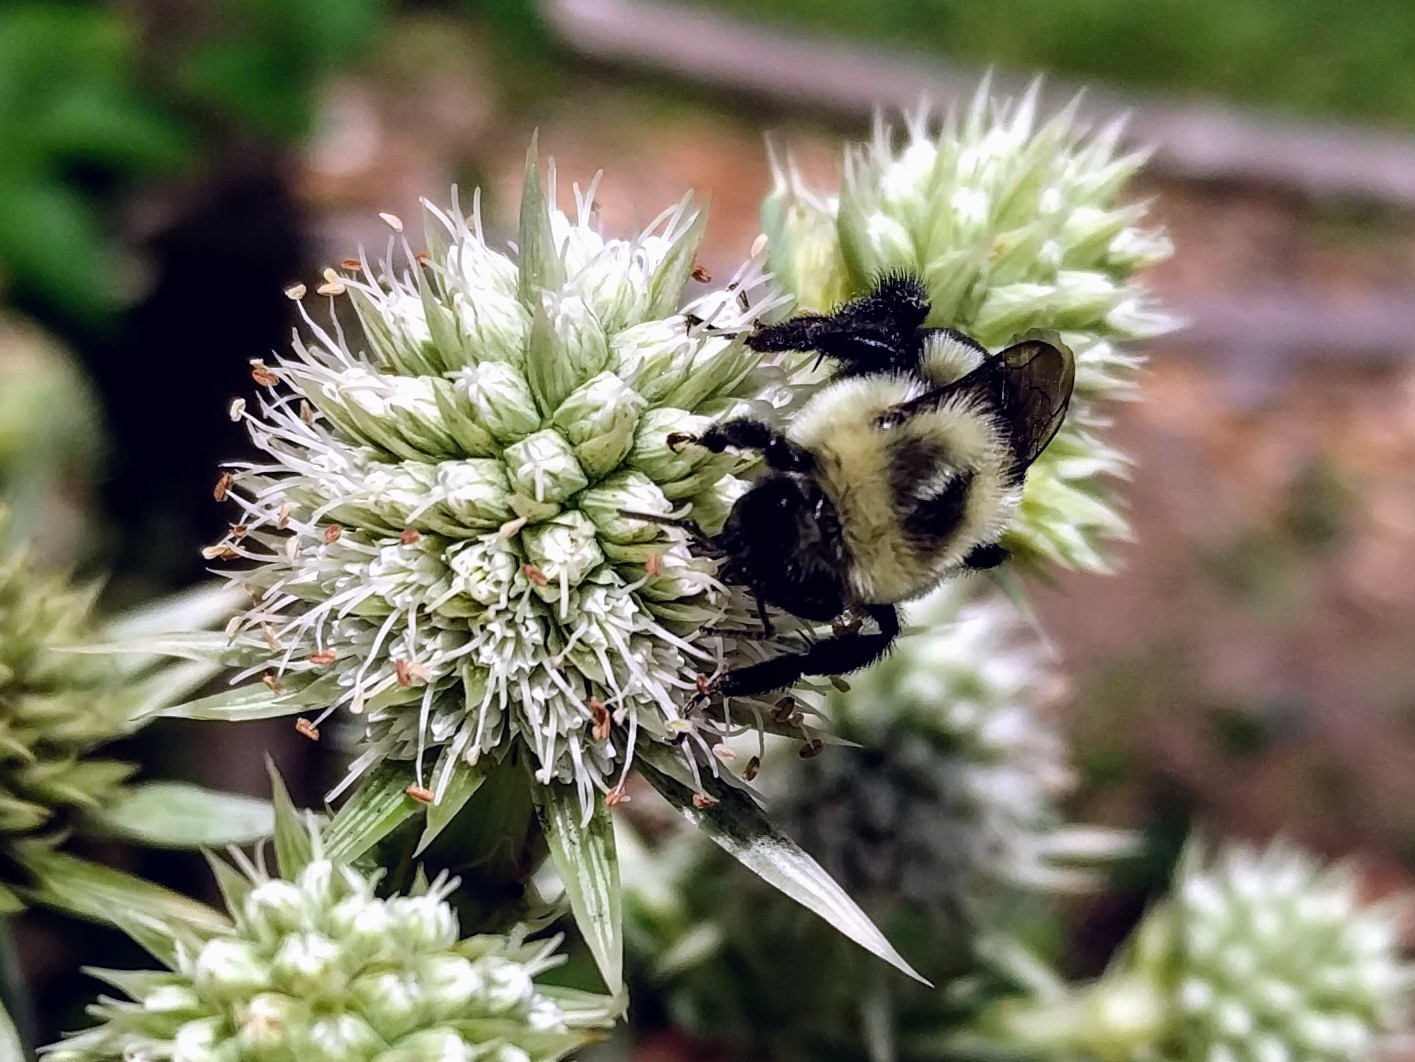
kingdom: Animalia
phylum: Arthropoda
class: Insecta
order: Hymenoptera
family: Apidae
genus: Bombus
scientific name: Bombus impatiens
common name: Common eastern bumble bee
